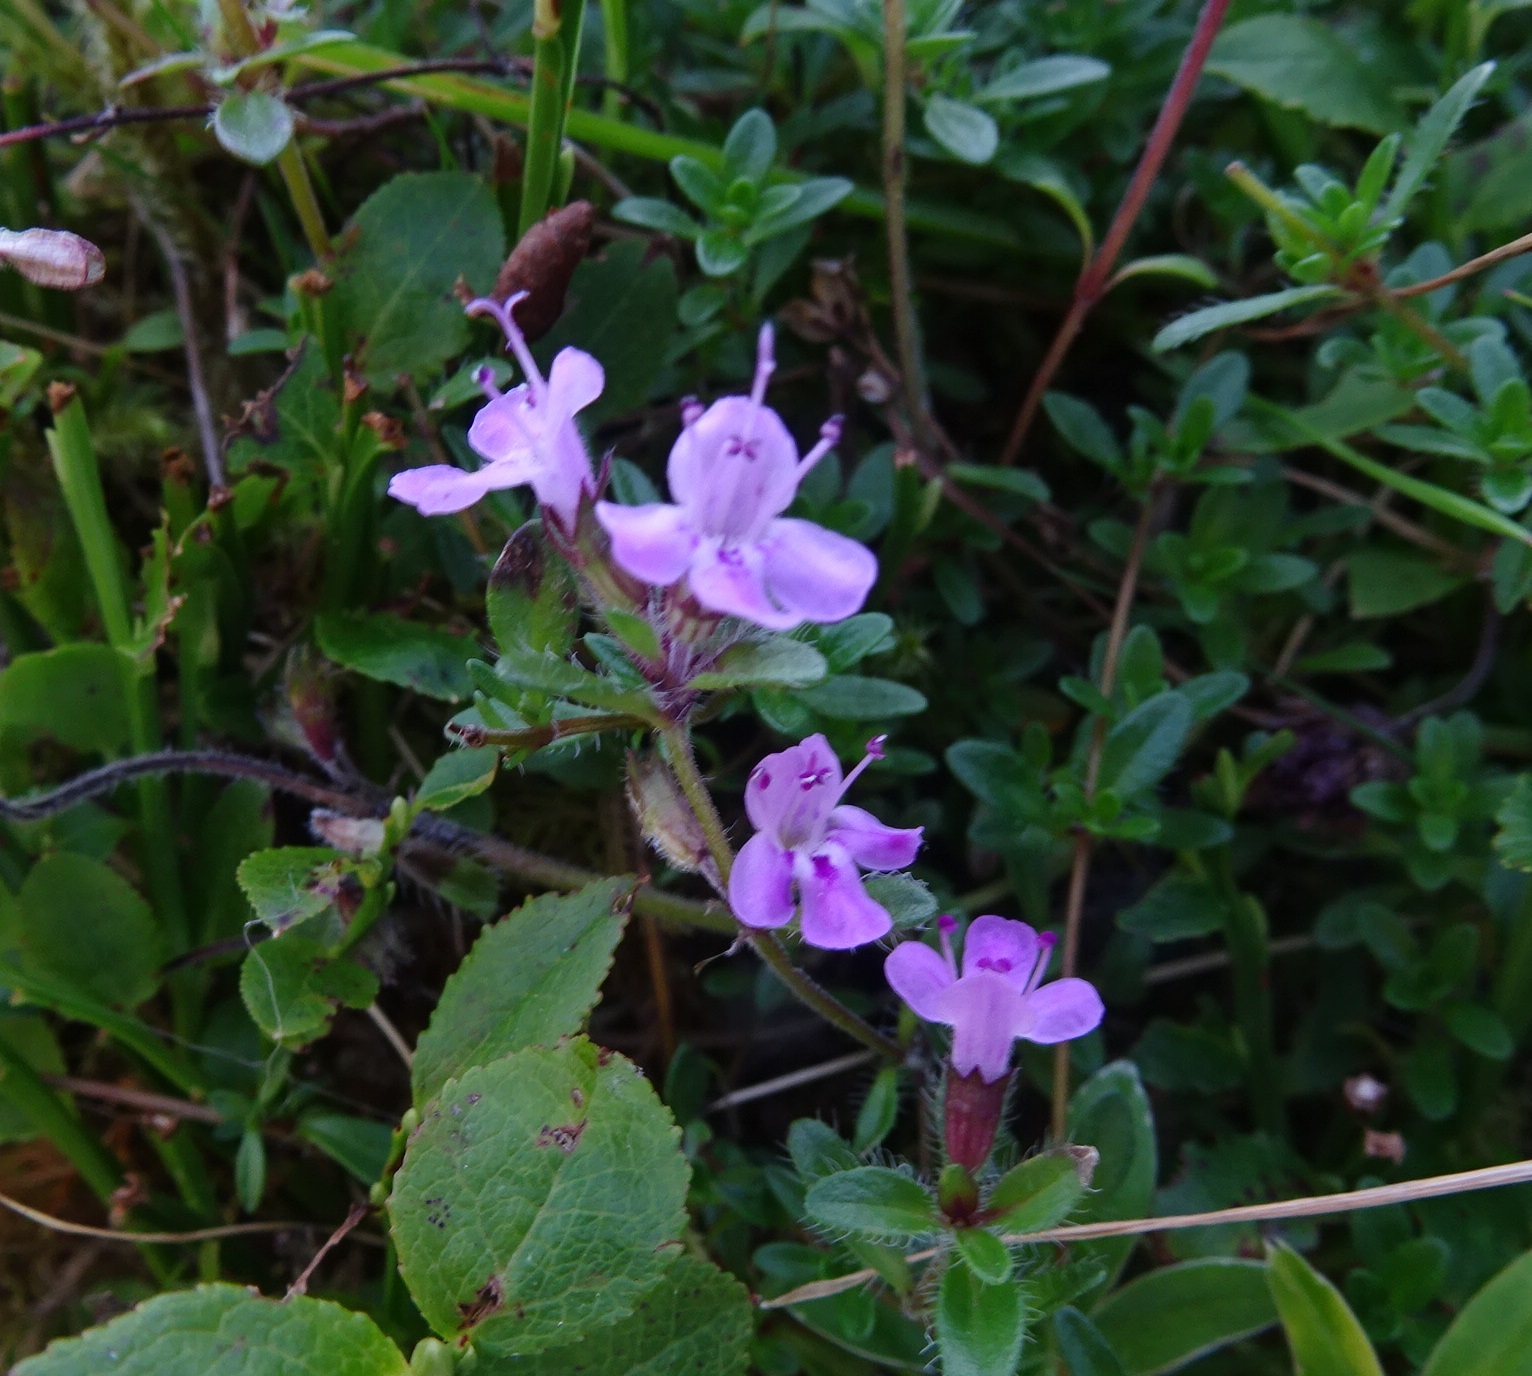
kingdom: Plantae
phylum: Tracheophyta
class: Magnoliopsida
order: Lamiales
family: Lamiaceae
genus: Thymus
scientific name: Thymus praecox
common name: Wild thyme
